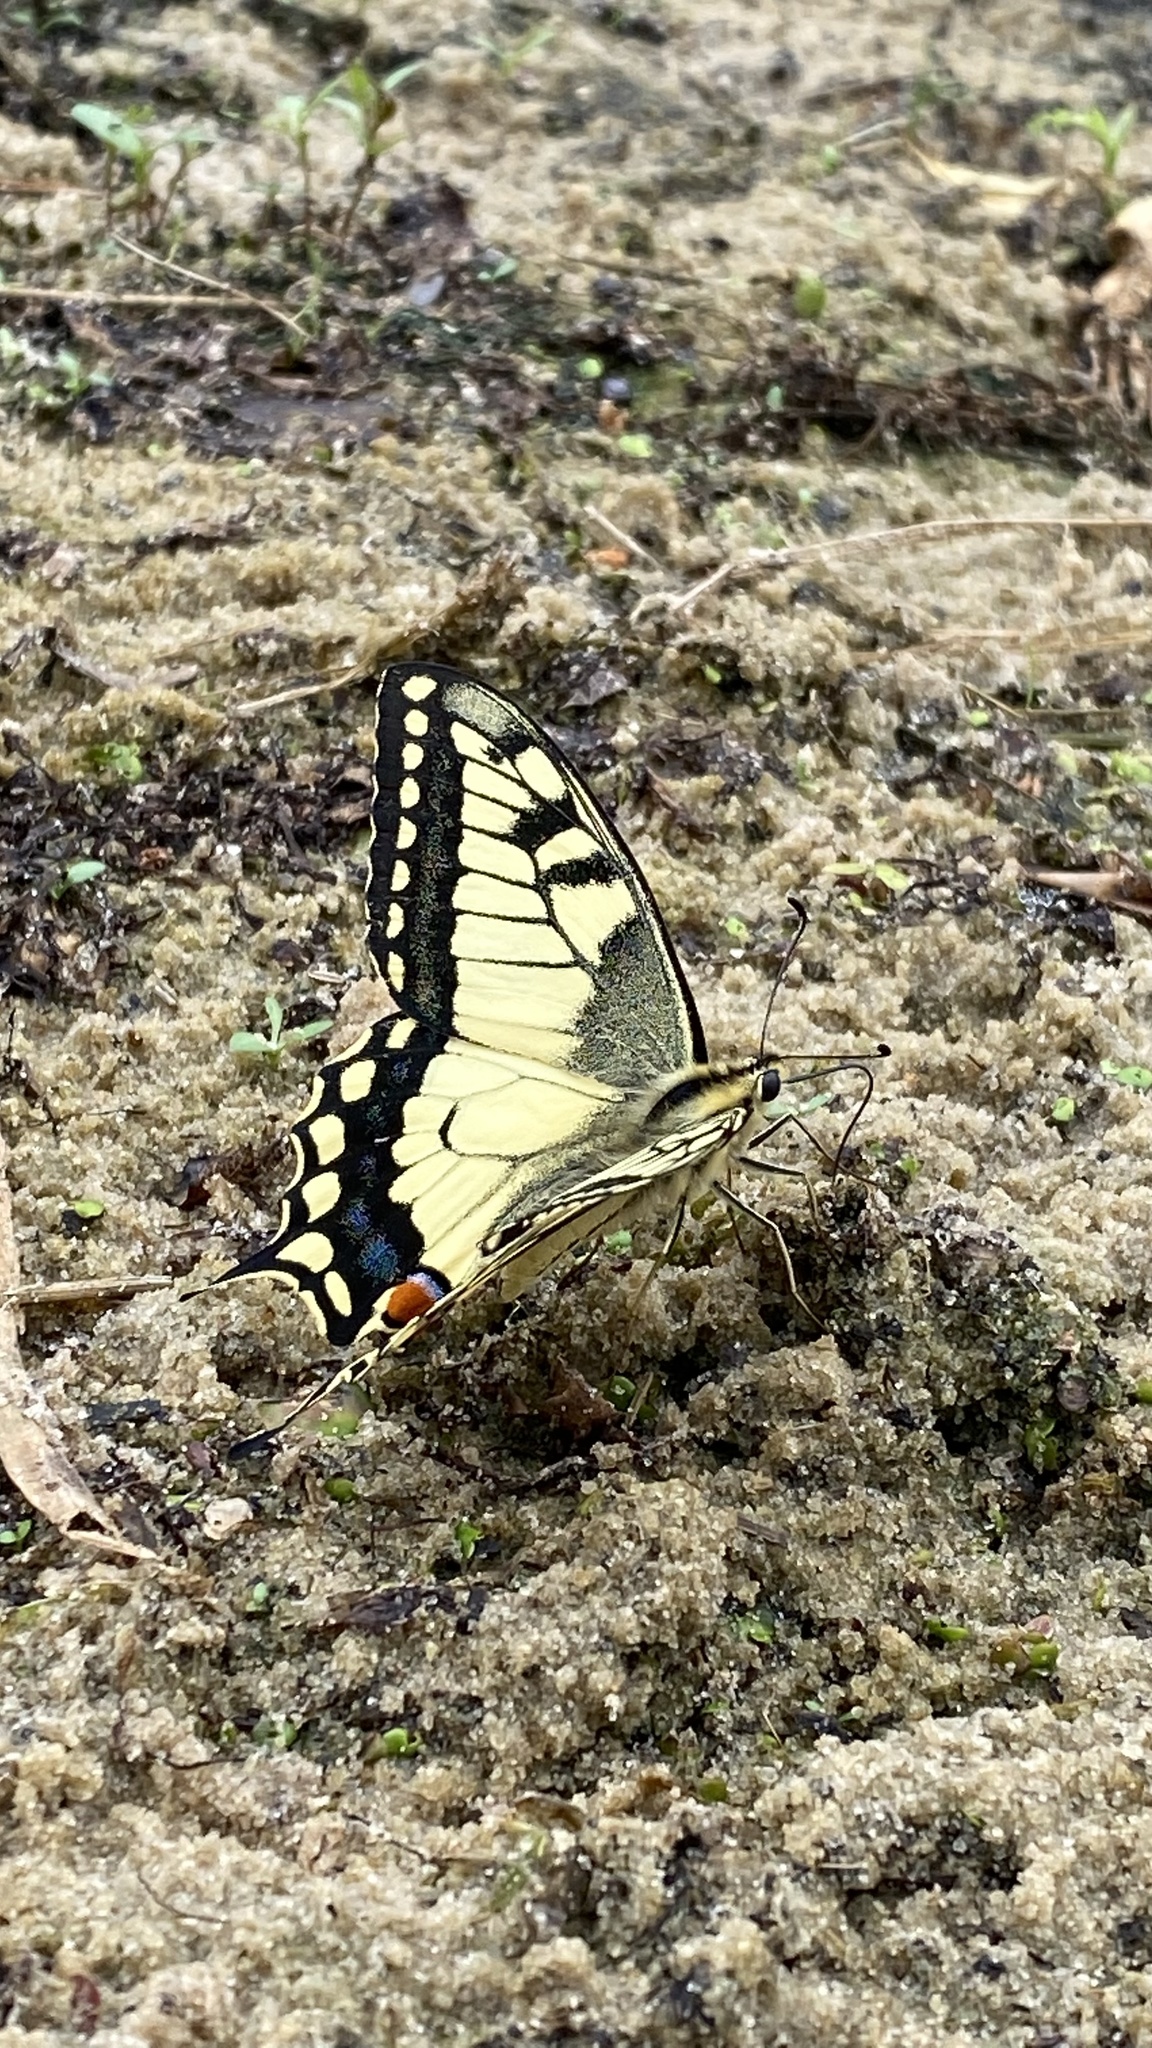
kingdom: Animalia
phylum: Arthropoda
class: Insecta
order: Lepidoptera
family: Papilionidae
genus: Papilio
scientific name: Papilio machaon
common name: Swallowtail
